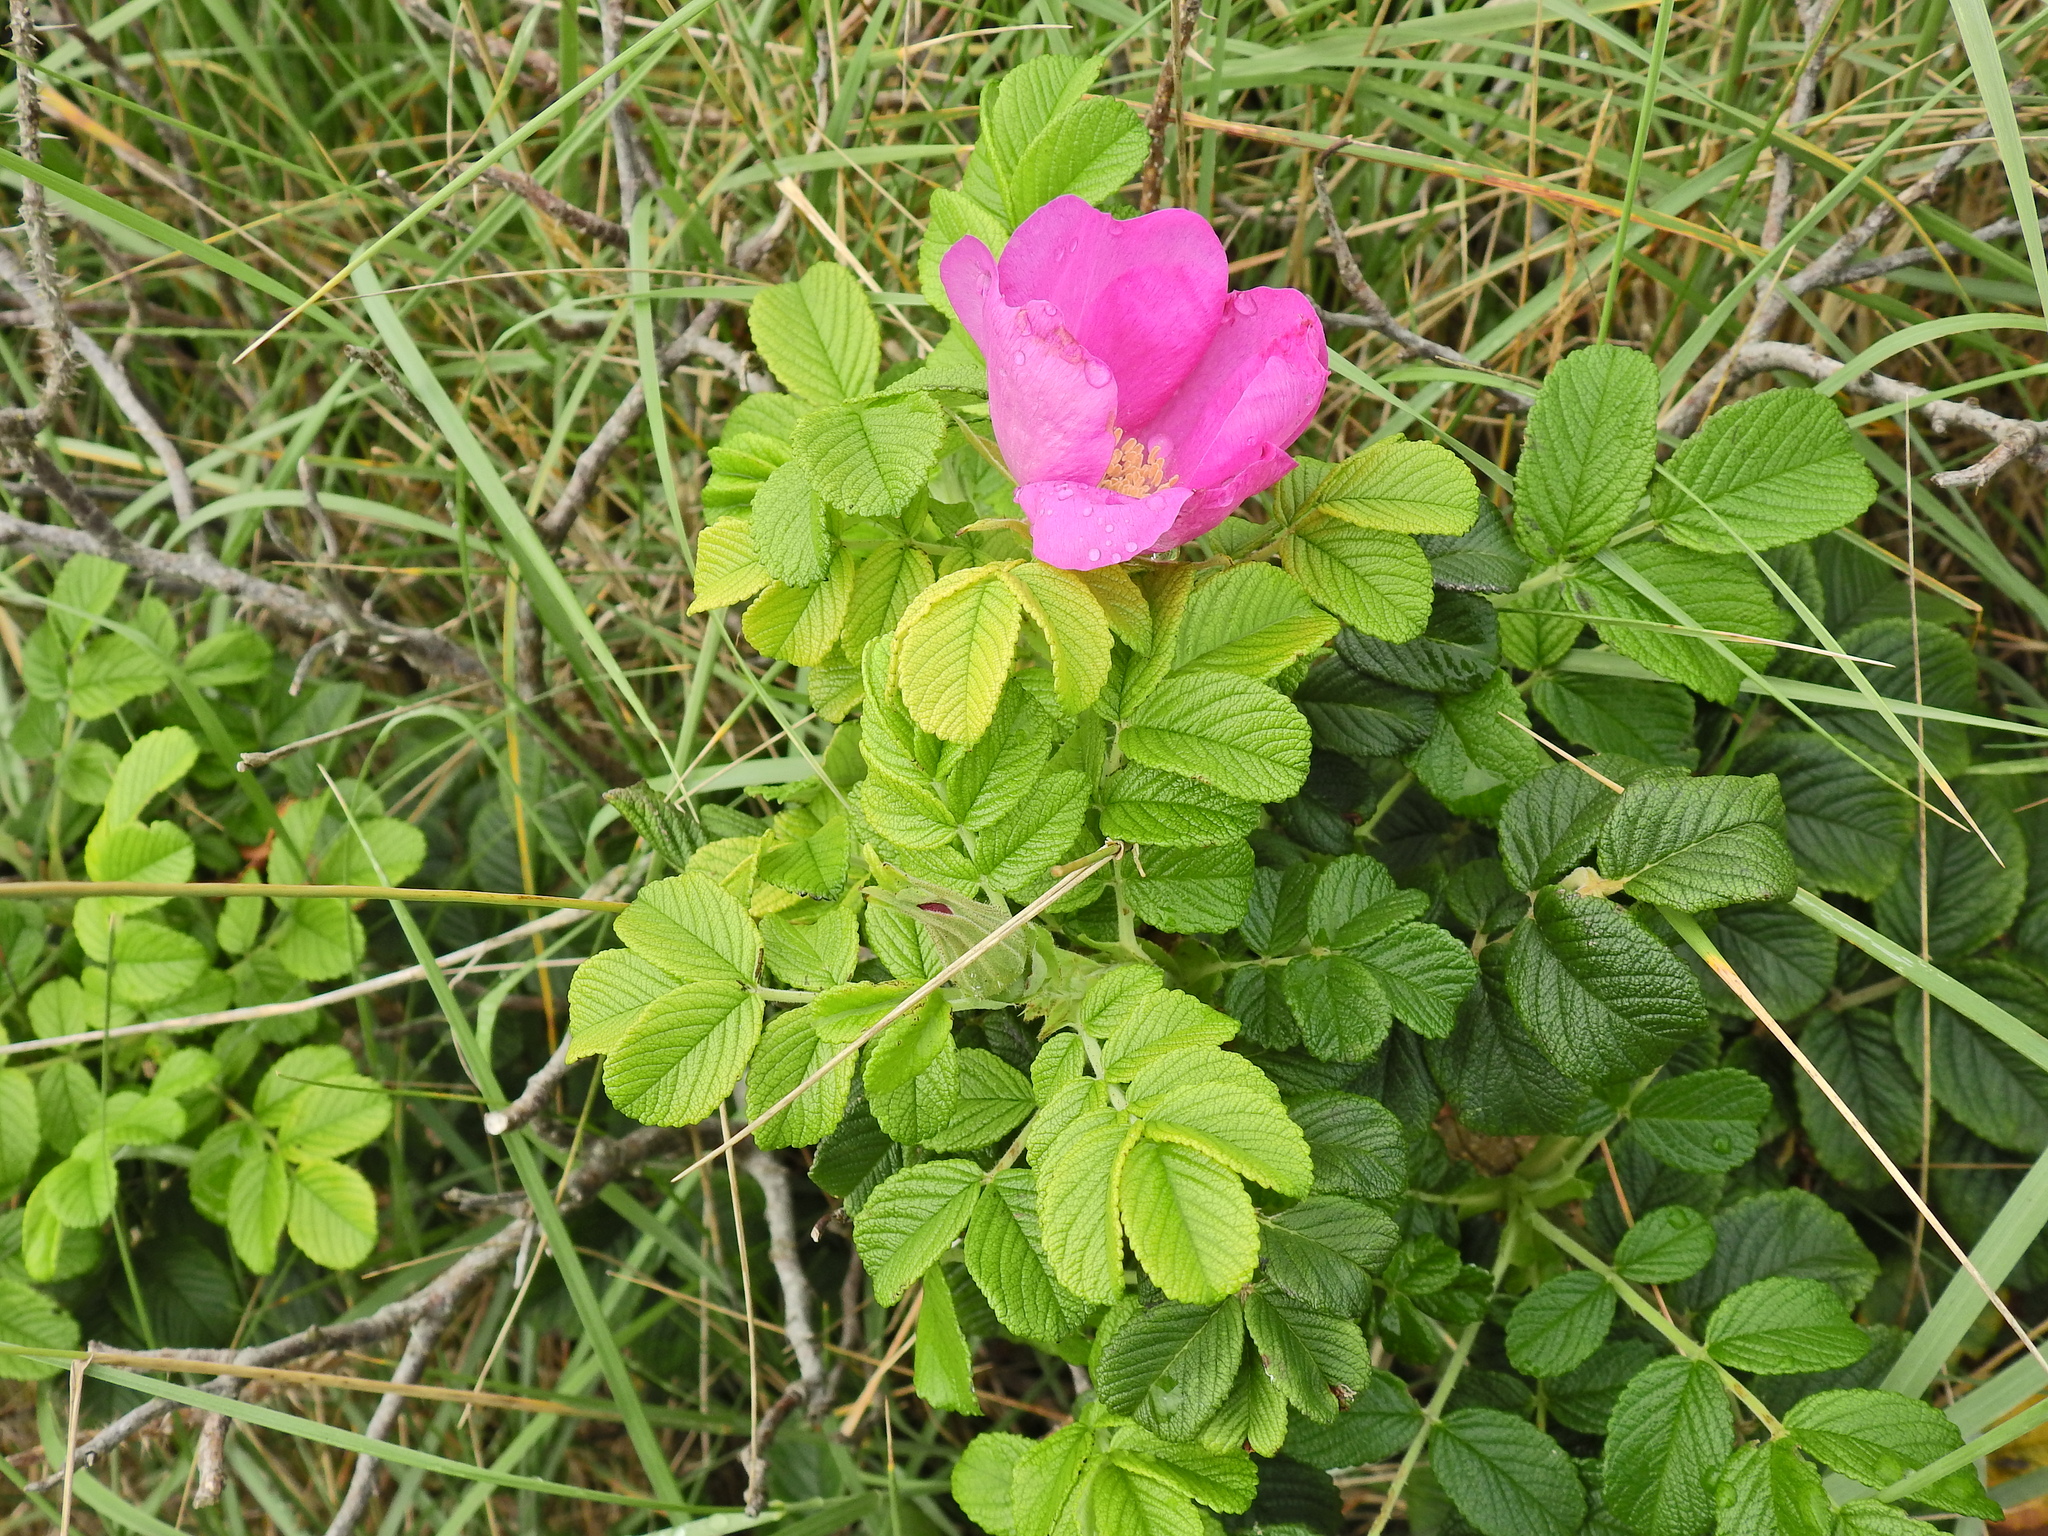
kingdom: Plantae
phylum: Tracheophyta
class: Magnoliopsida
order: Rosales
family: Rosaceae
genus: Rosa
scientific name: Rosa rugosa
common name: Japanese rose
